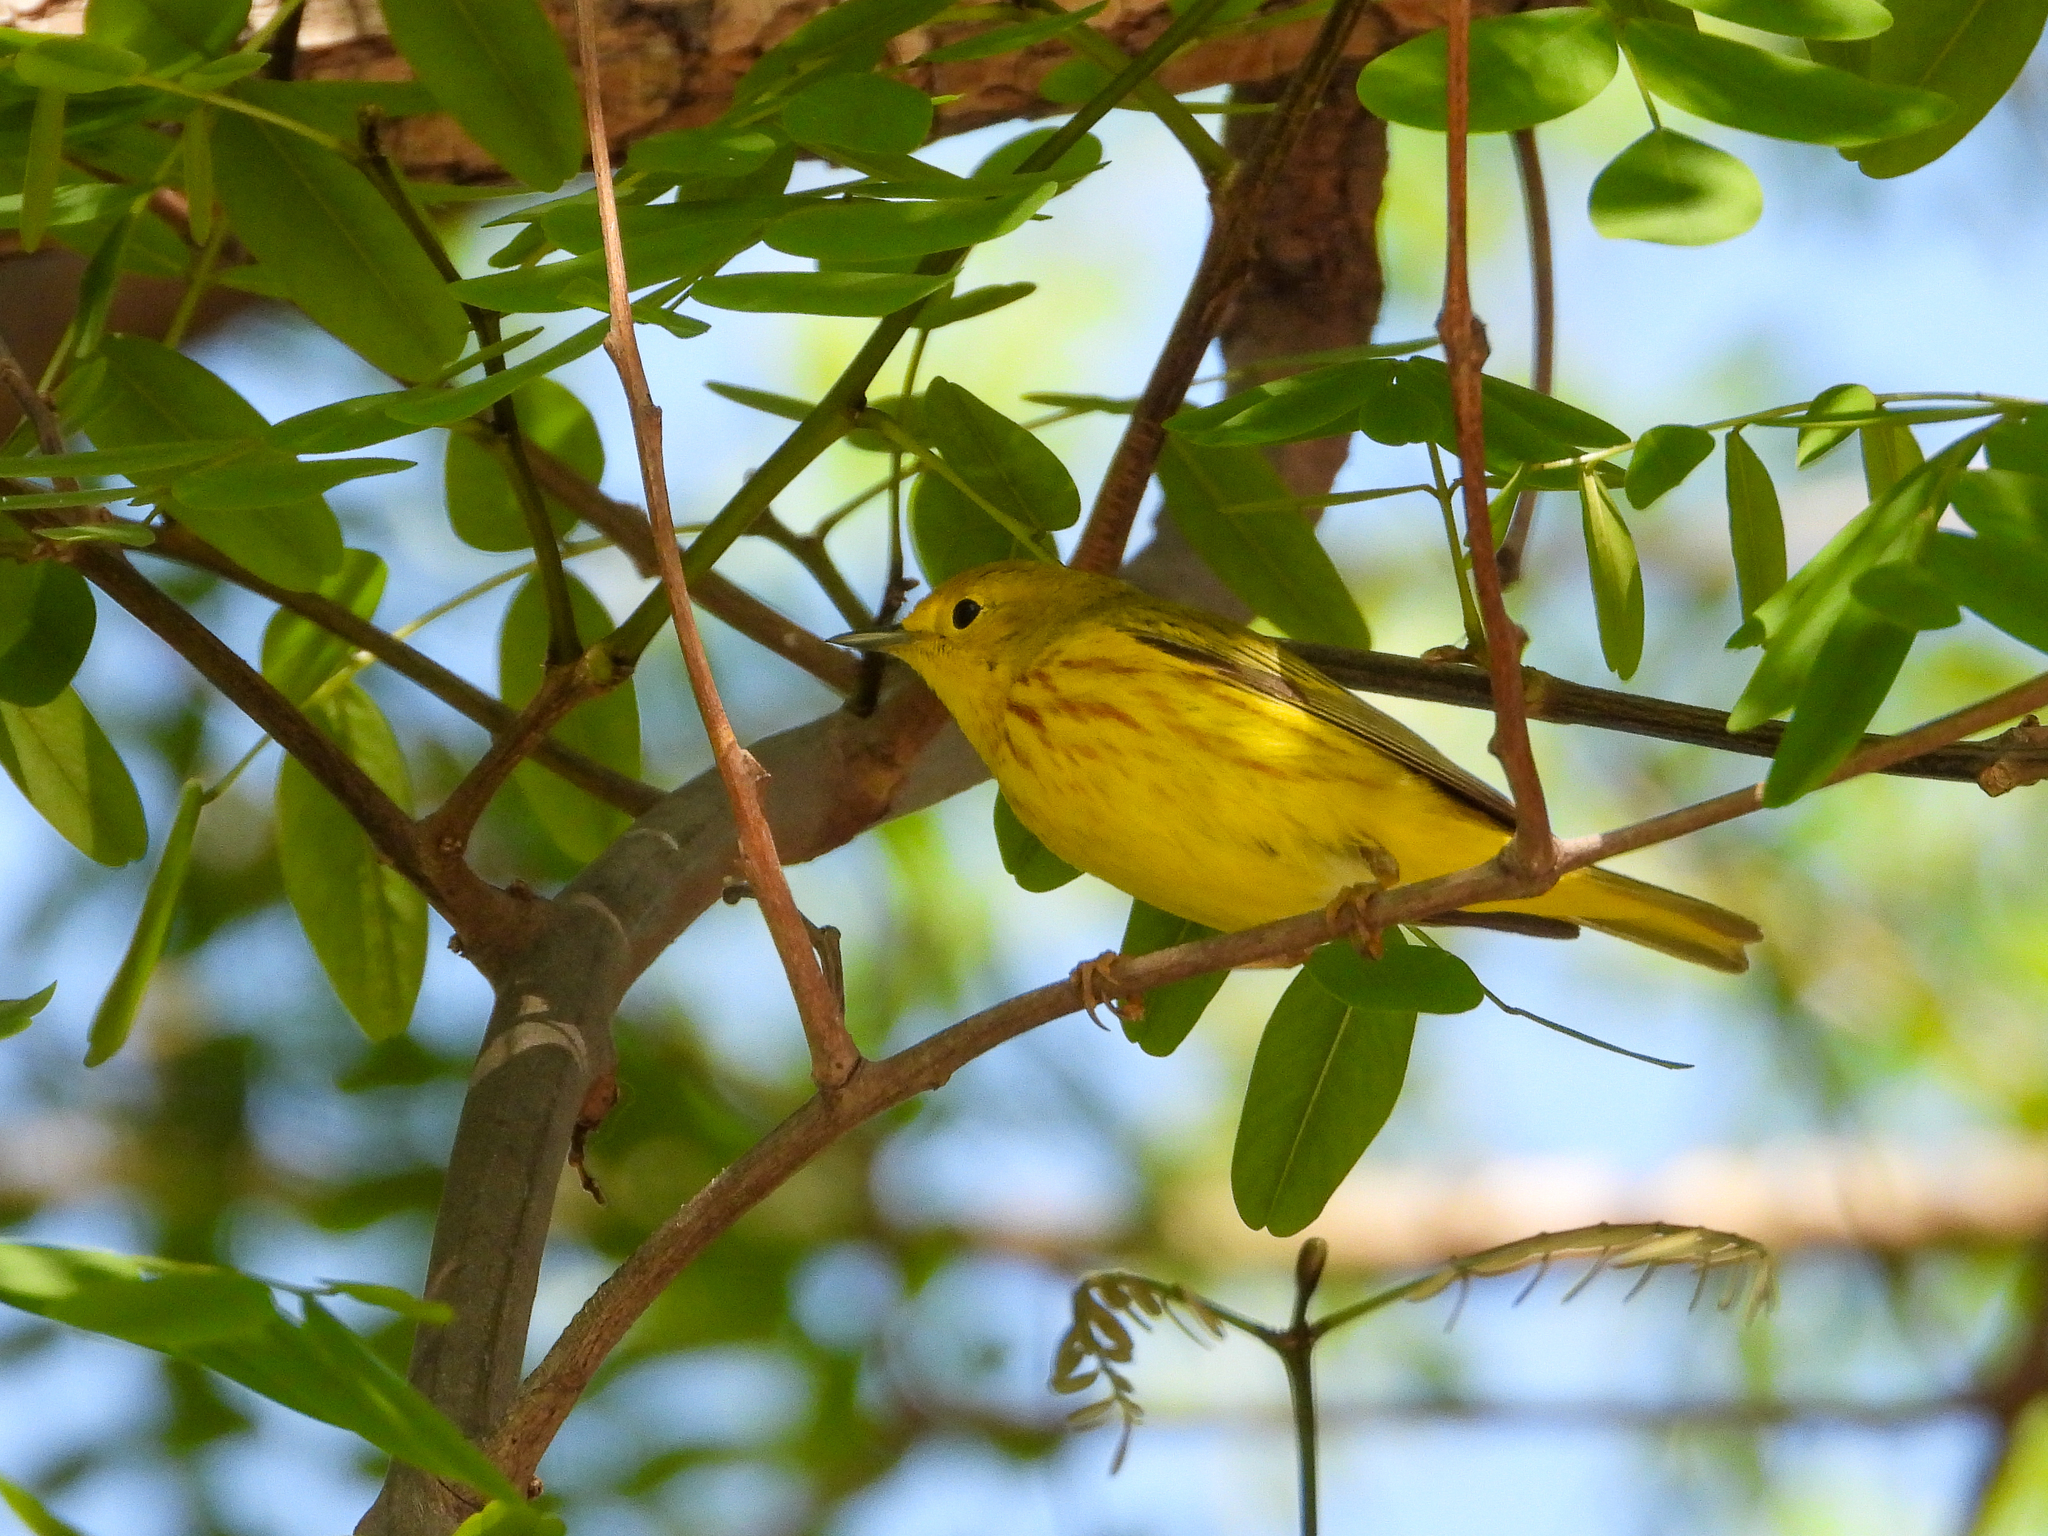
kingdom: Animalia
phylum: Chordata
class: Aves
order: Passeriformes
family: Parulidae
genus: Setophaga
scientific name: Setophaga petechia
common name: Yellow warbler
